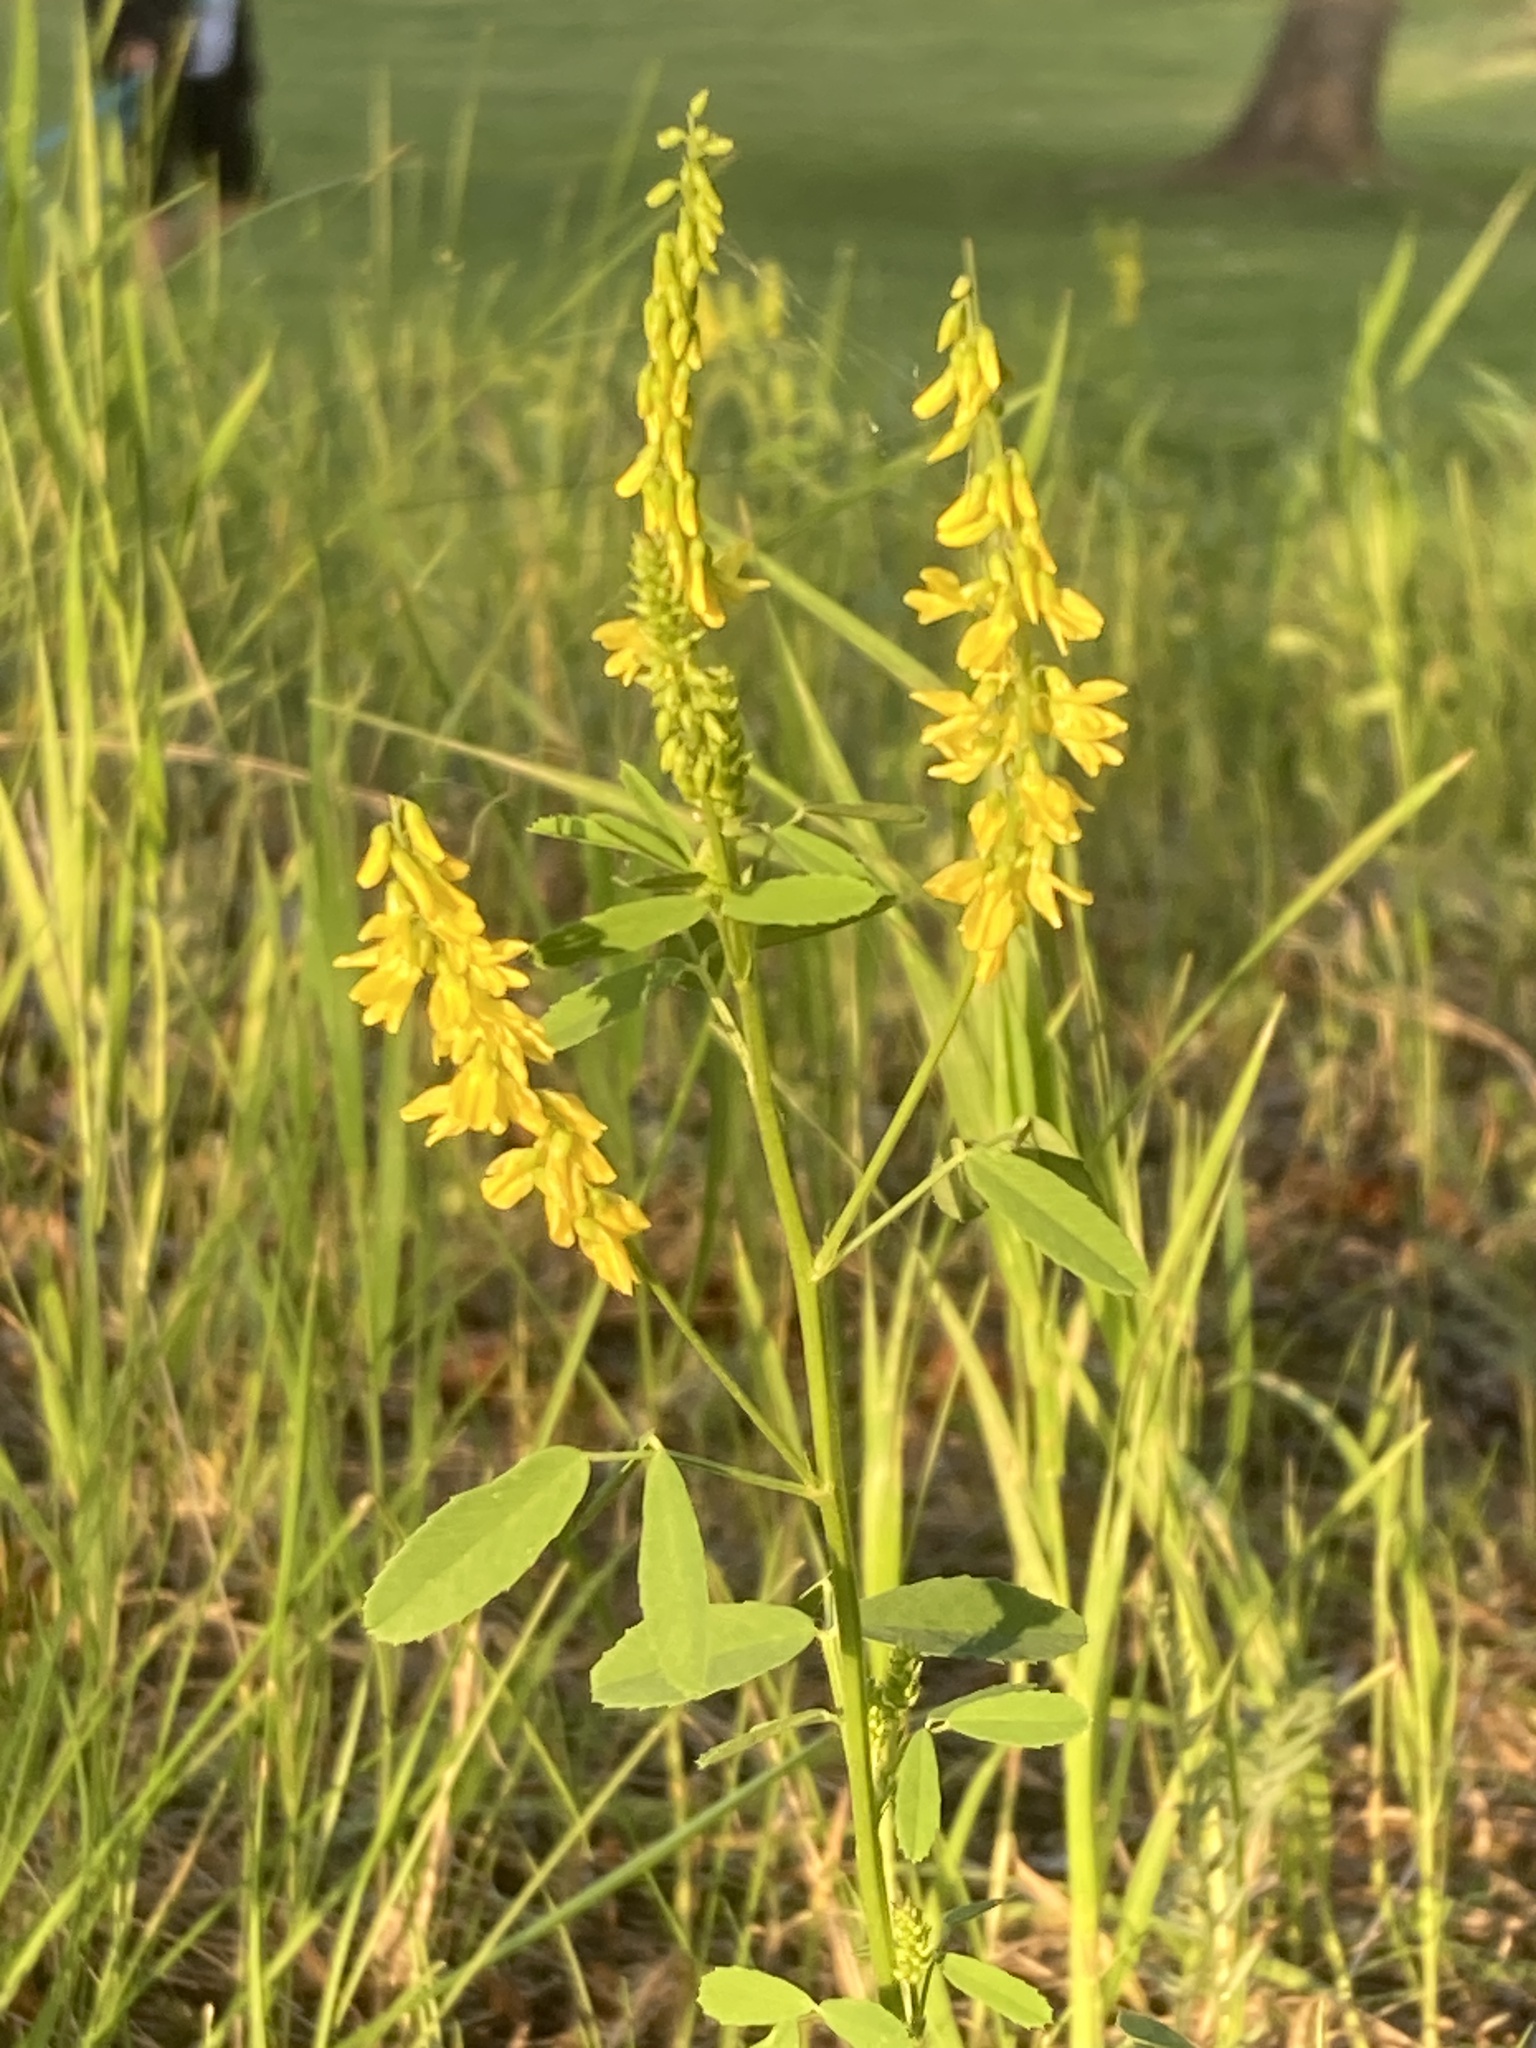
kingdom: Plantae
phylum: Tracheophyta
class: Magnoliopsida
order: Fabales
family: Fabaceae
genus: Melilotus
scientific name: Melilotus officinalis
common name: Sweetclover
